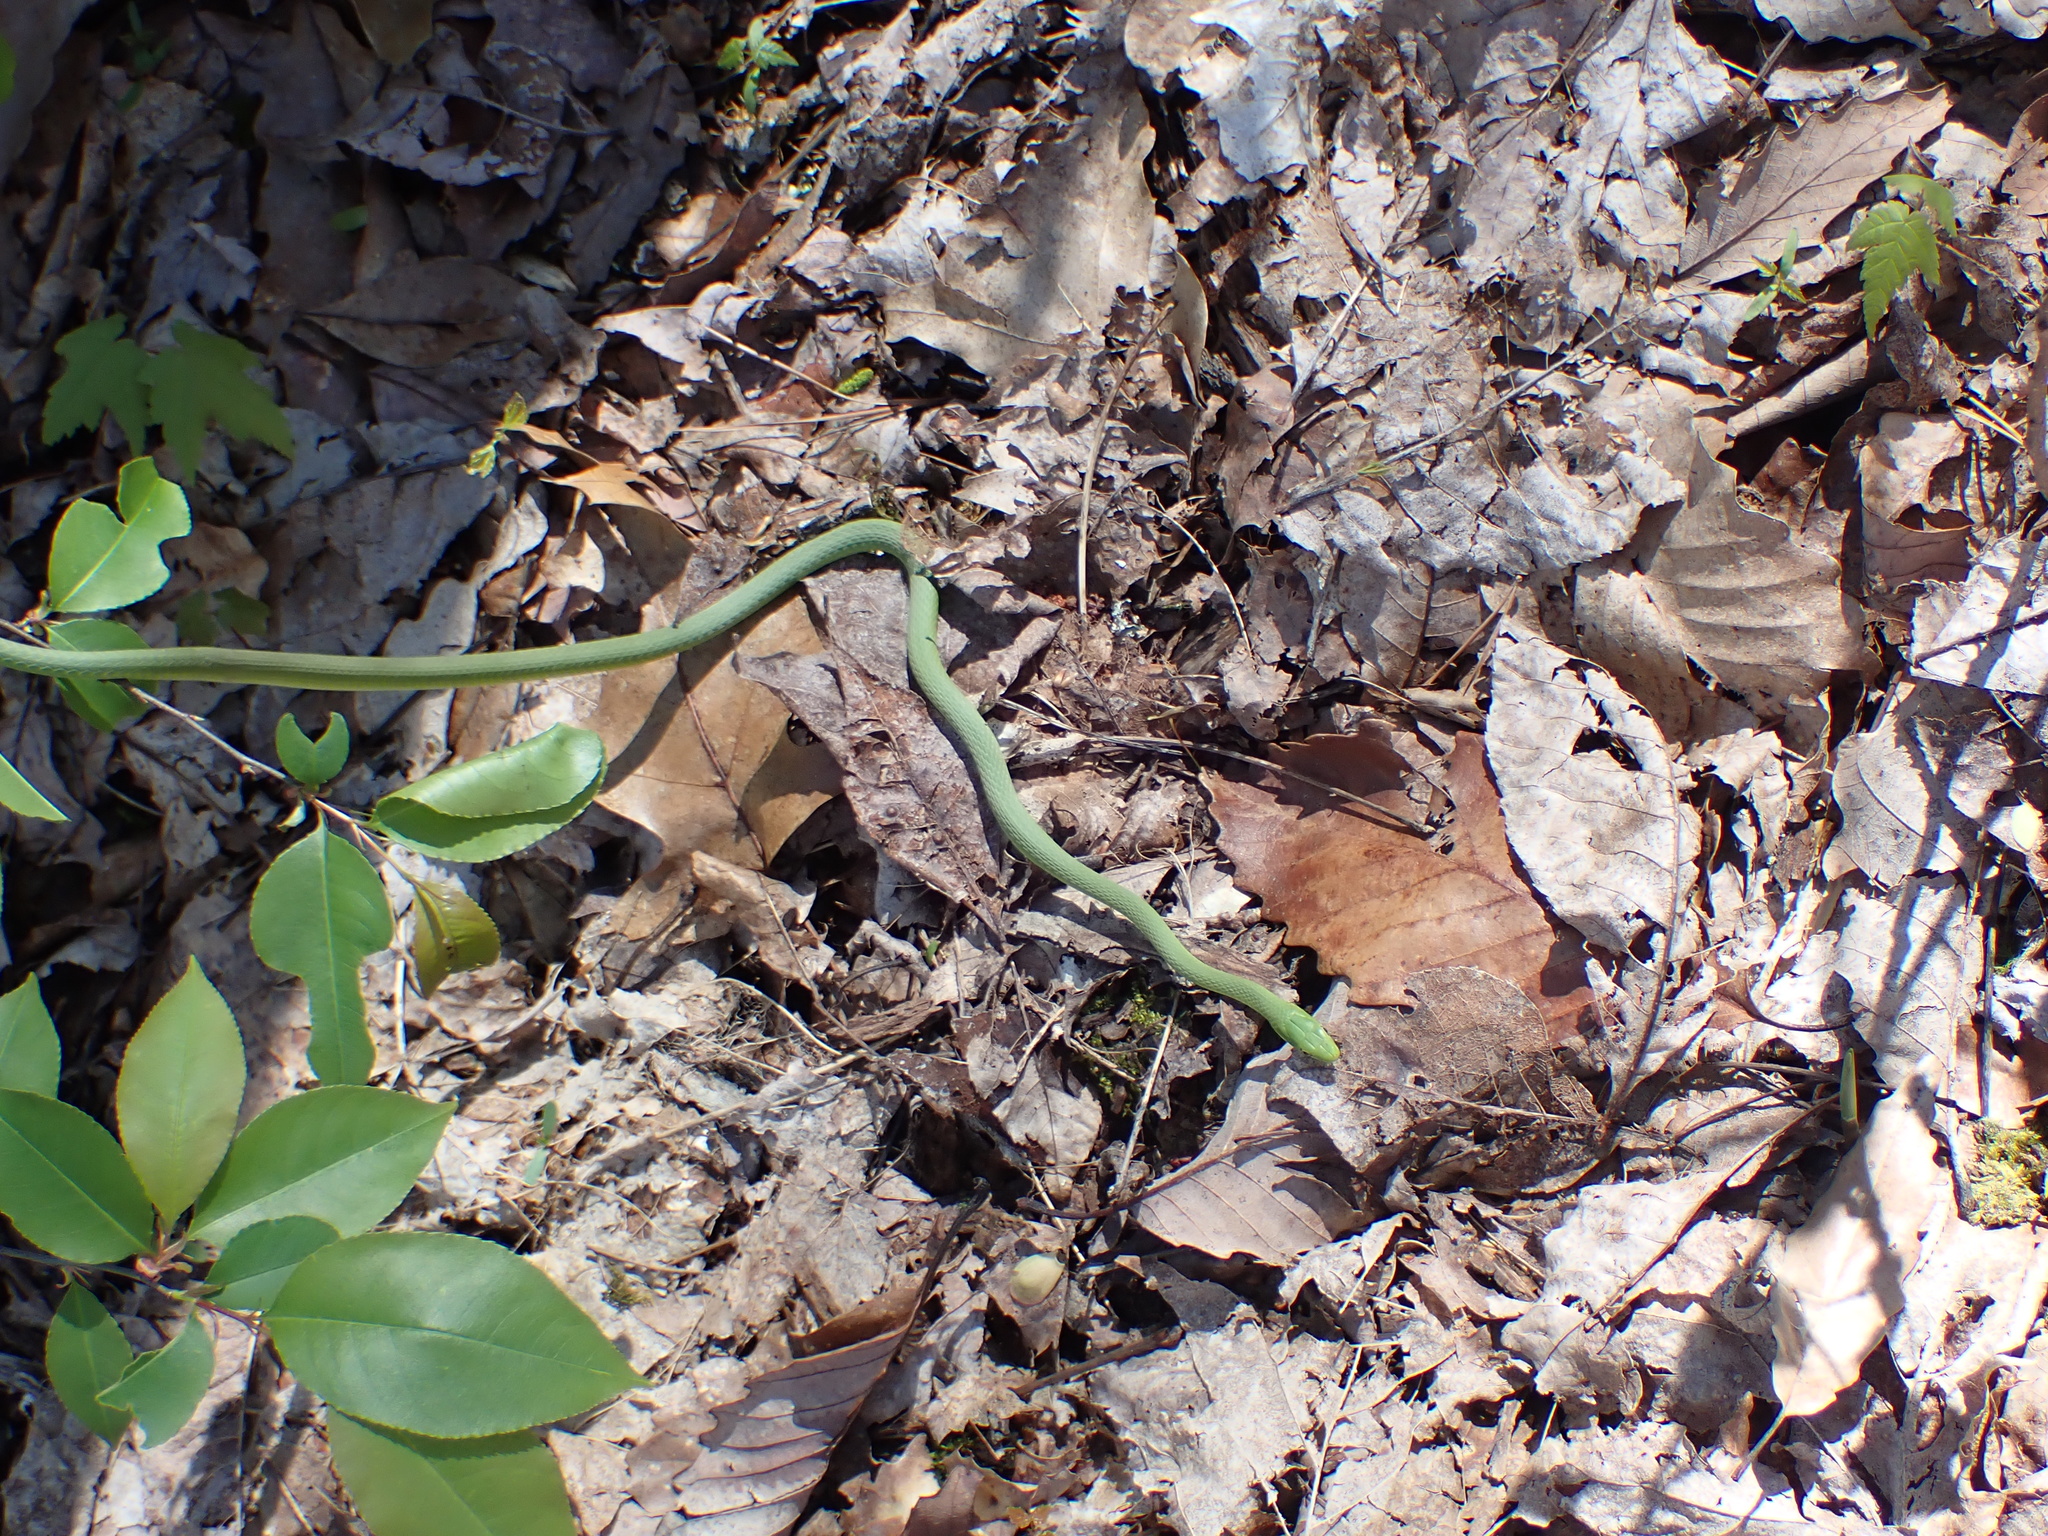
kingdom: Animalia
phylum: Chordata
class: Squamata
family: Colubridae
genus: Opheodrys
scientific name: Opheodrys aestivus
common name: Rough greensnake
